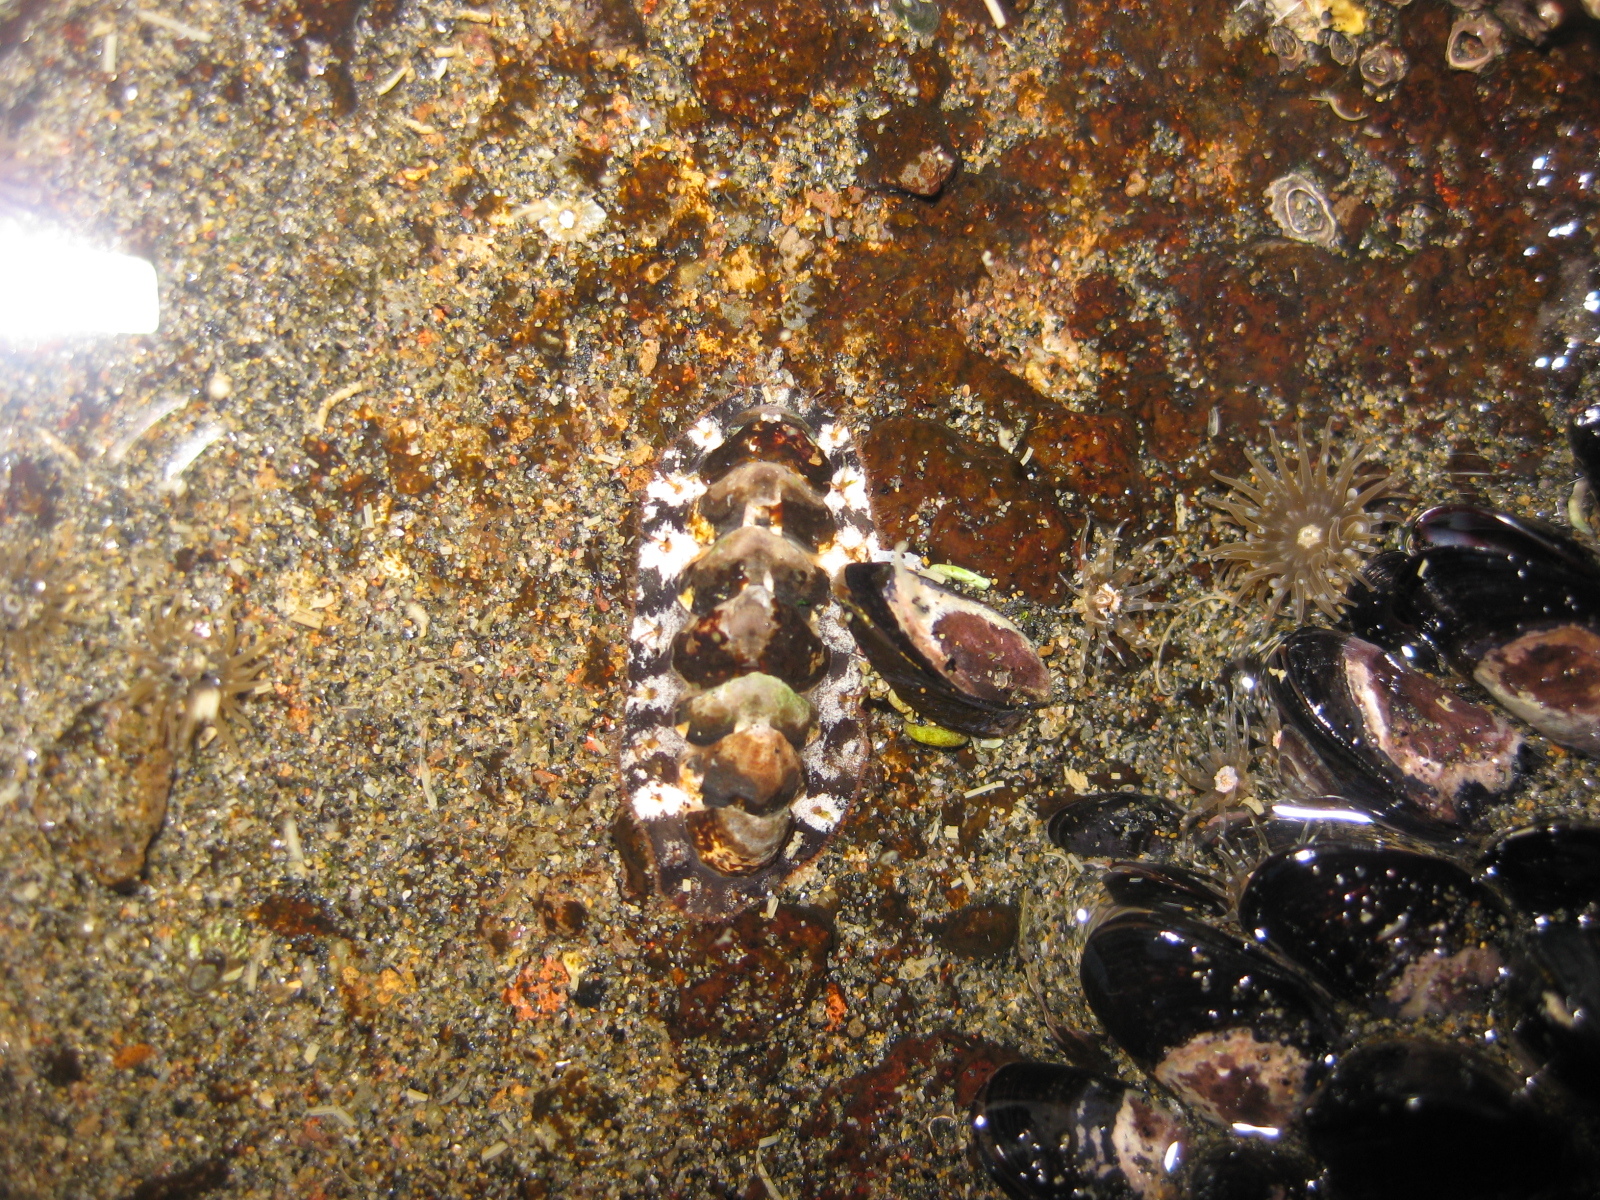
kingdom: Animalia
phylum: Mollusca
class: Polyplacophora
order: Chitonida
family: Mopaliidae
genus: Plaxiphora
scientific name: Plaxiphora caelata
